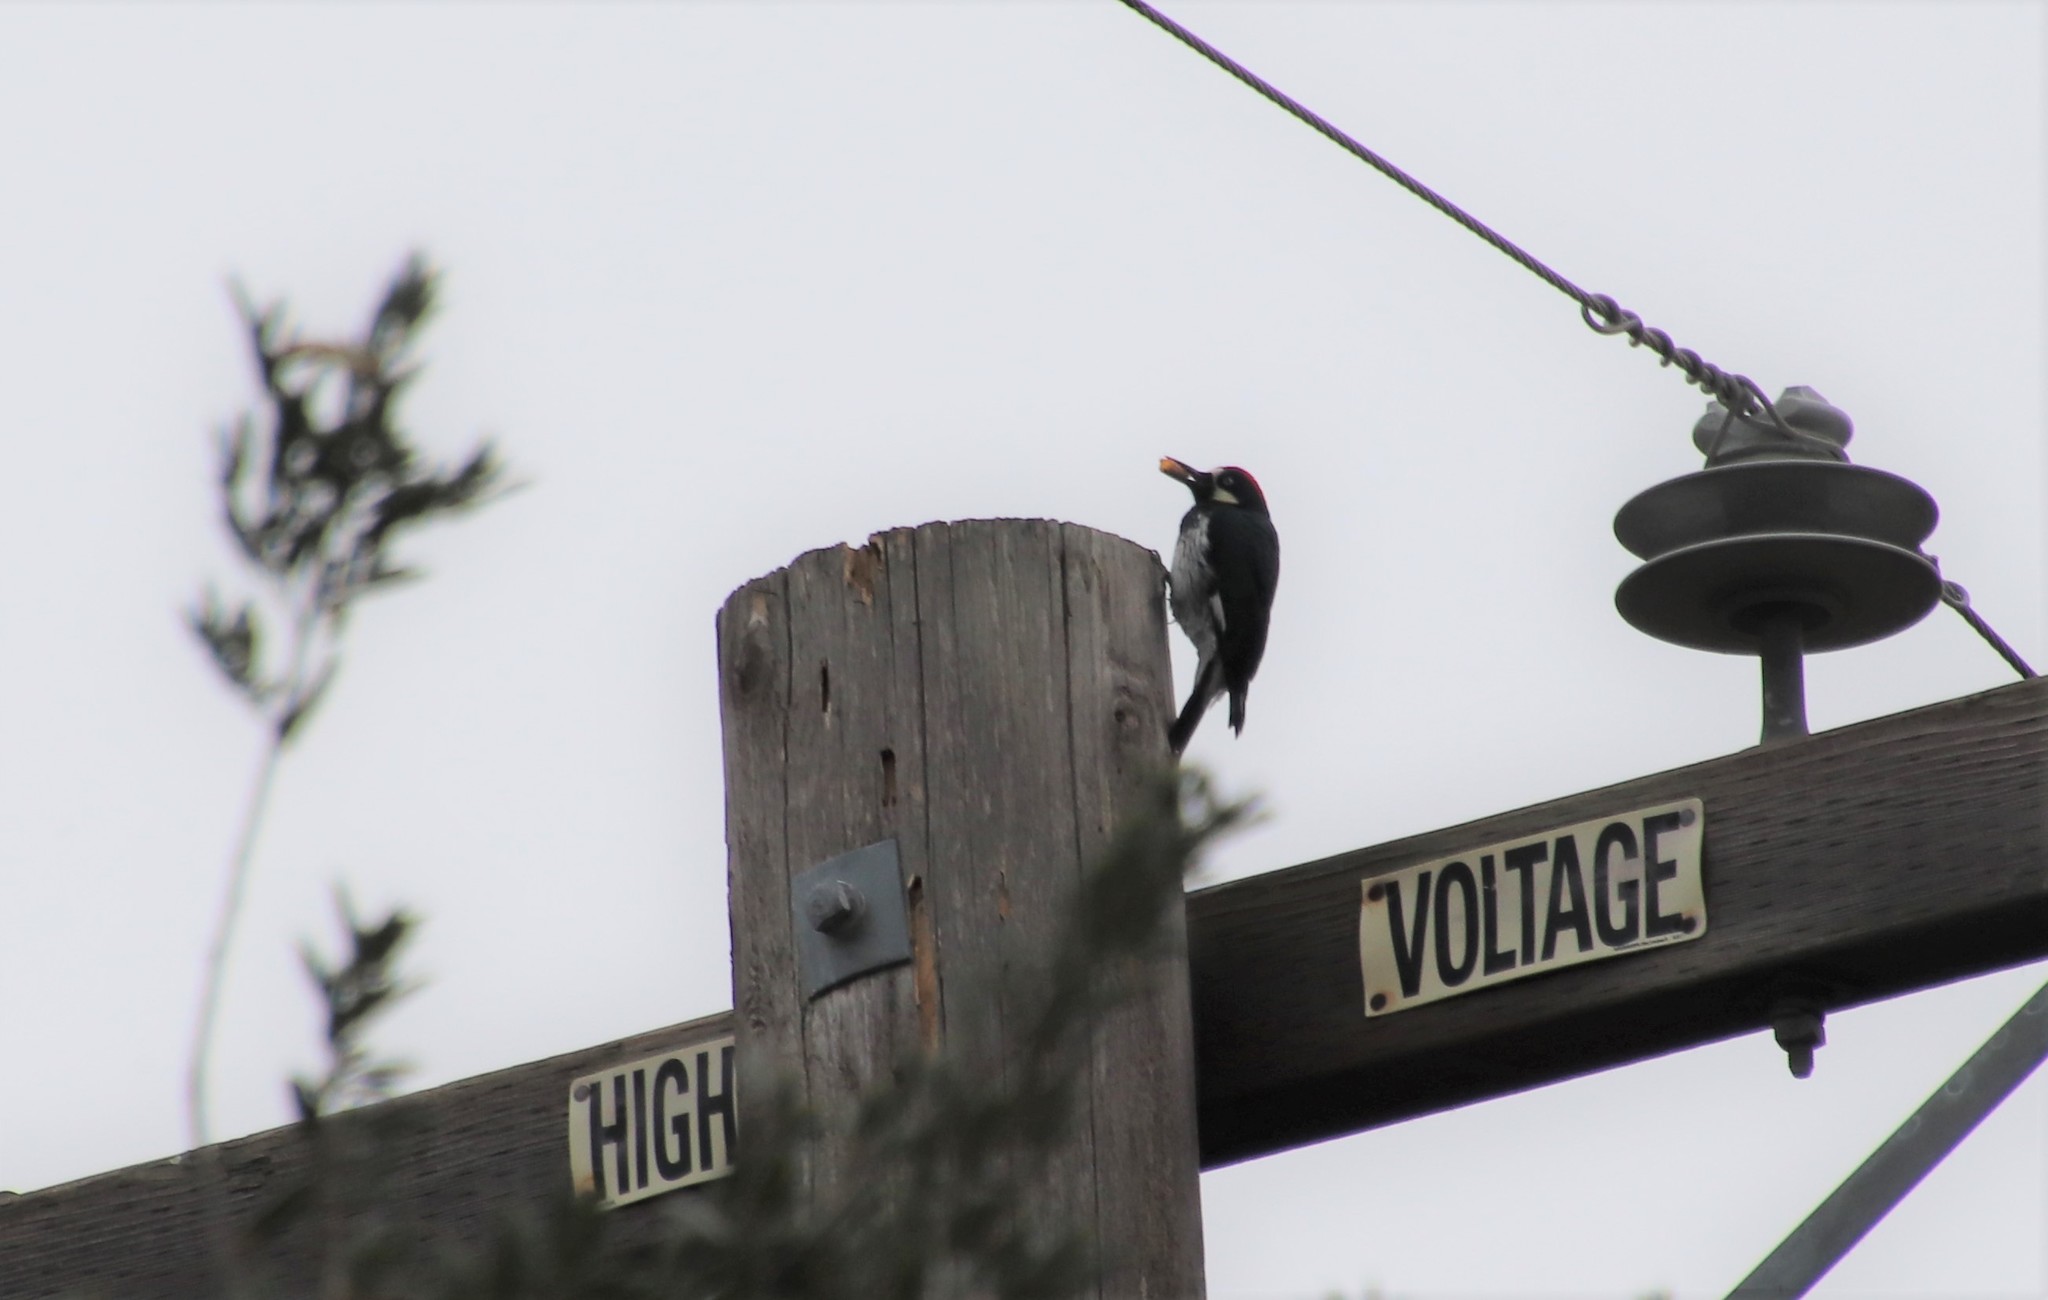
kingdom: Animalia
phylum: Chordata
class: Aves
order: Piciformes
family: Picidae
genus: Melanerpes
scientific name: Melanerpes formicivorus
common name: Acorn woodpecker
